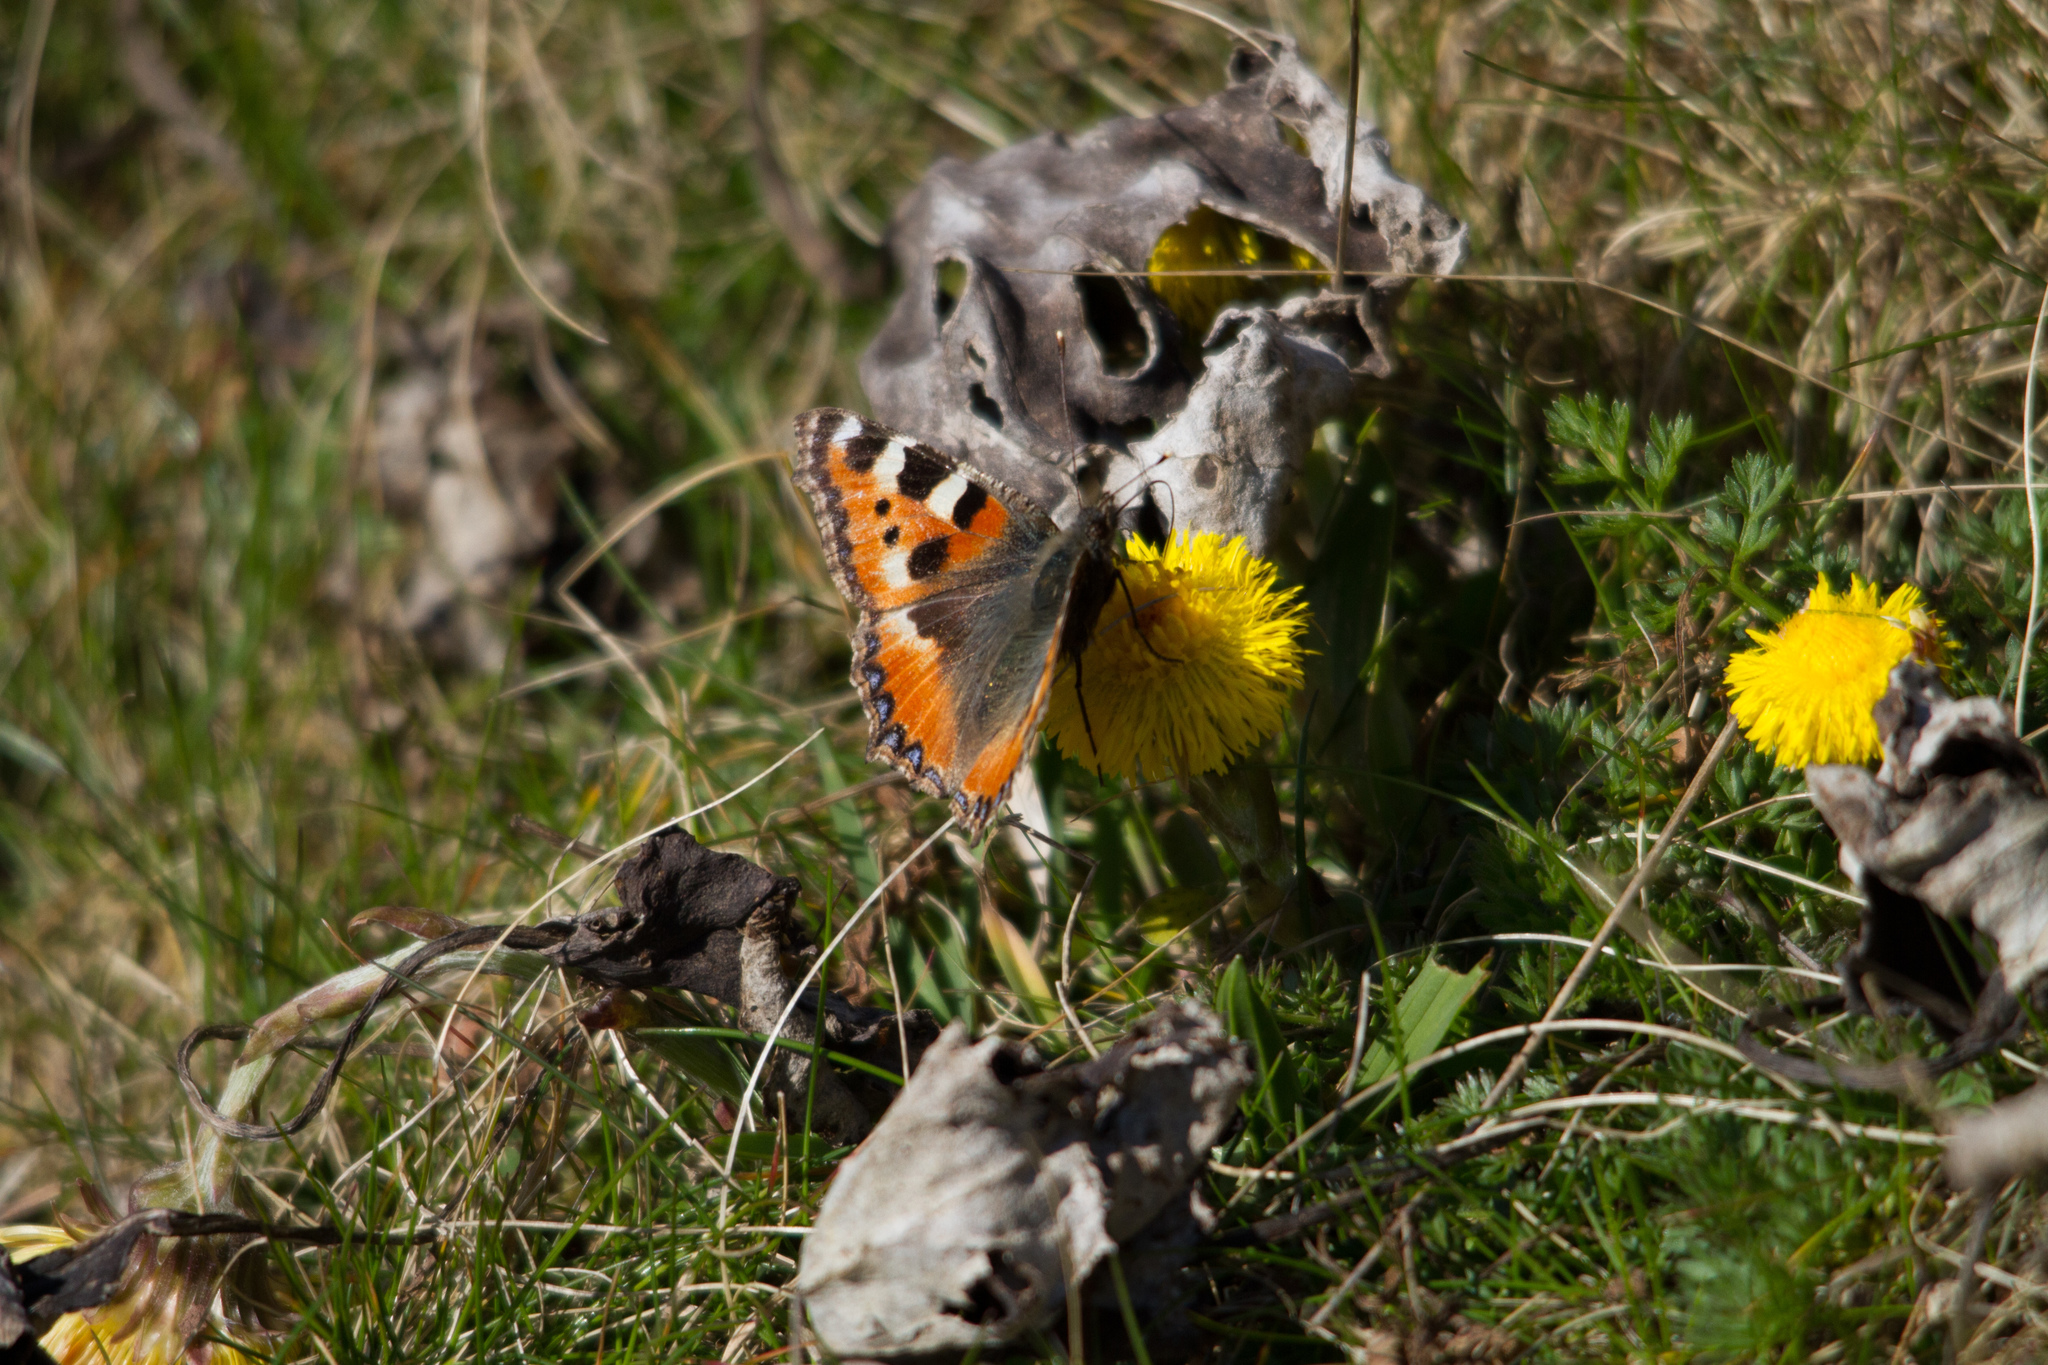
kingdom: Animalia
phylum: Arthropoda
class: Insecta
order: Lepidoptera
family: Nymphalidae
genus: Aglais
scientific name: Aglais urticae
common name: Small tortoiseshell
